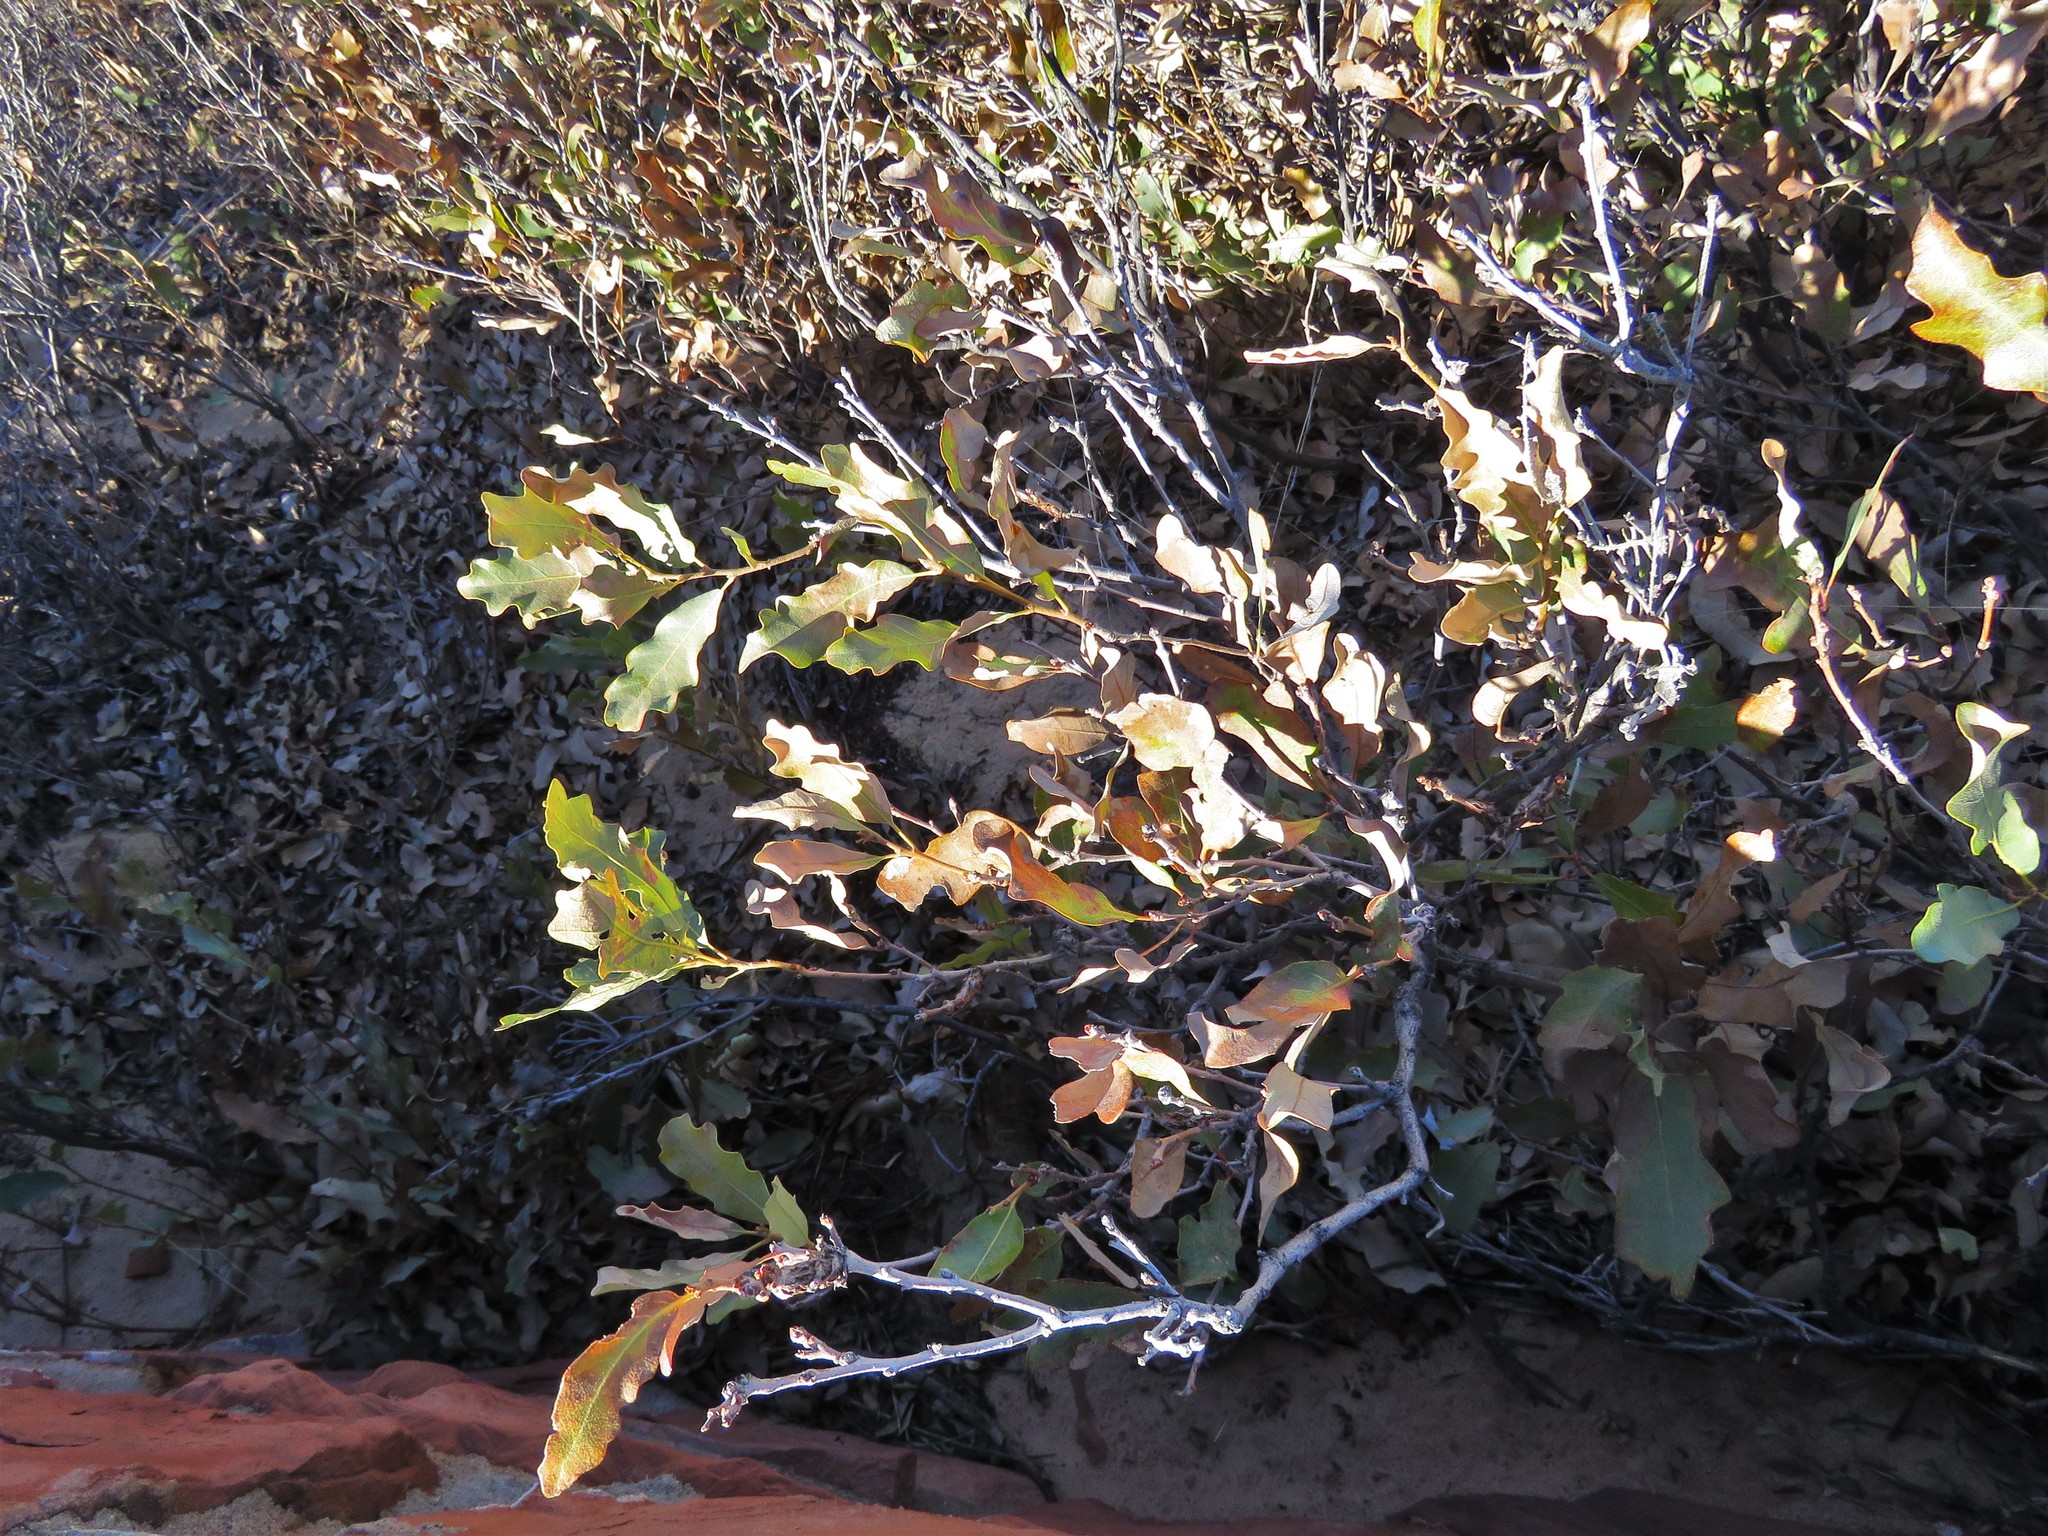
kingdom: Plantae
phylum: Tracheophyta
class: Magnoliopsida
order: Fagales
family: Fagaceae
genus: Quercus
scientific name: Quercus havardii
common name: Shinnery oak
